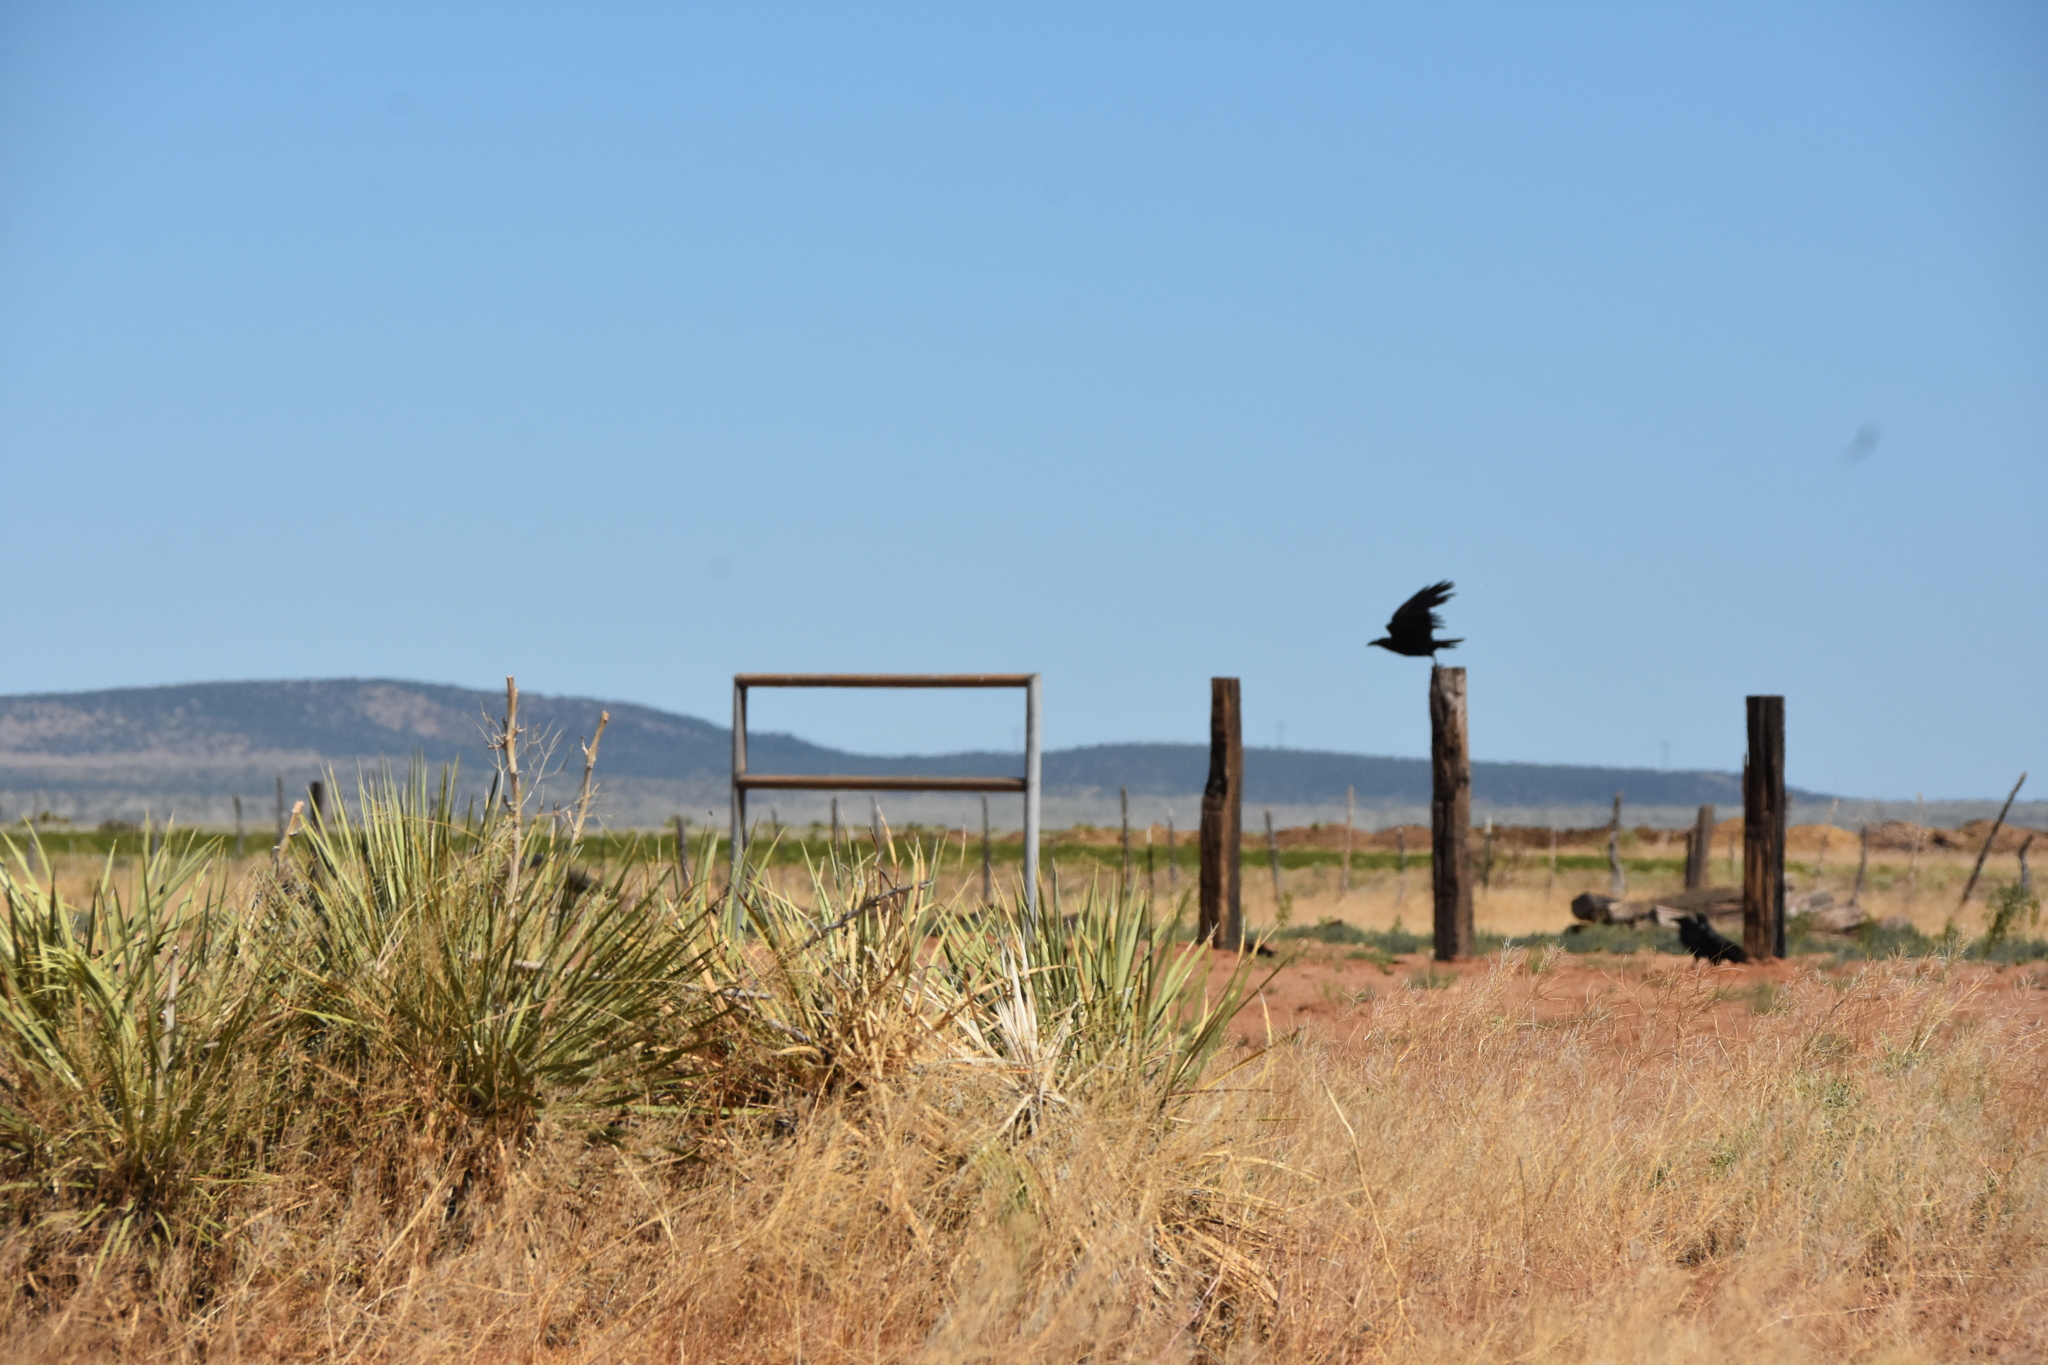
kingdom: Animalia
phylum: Chordata
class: Aves
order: Passeriformes
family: Corvidae
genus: Corvus
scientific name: Corvus corax
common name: Common raven
